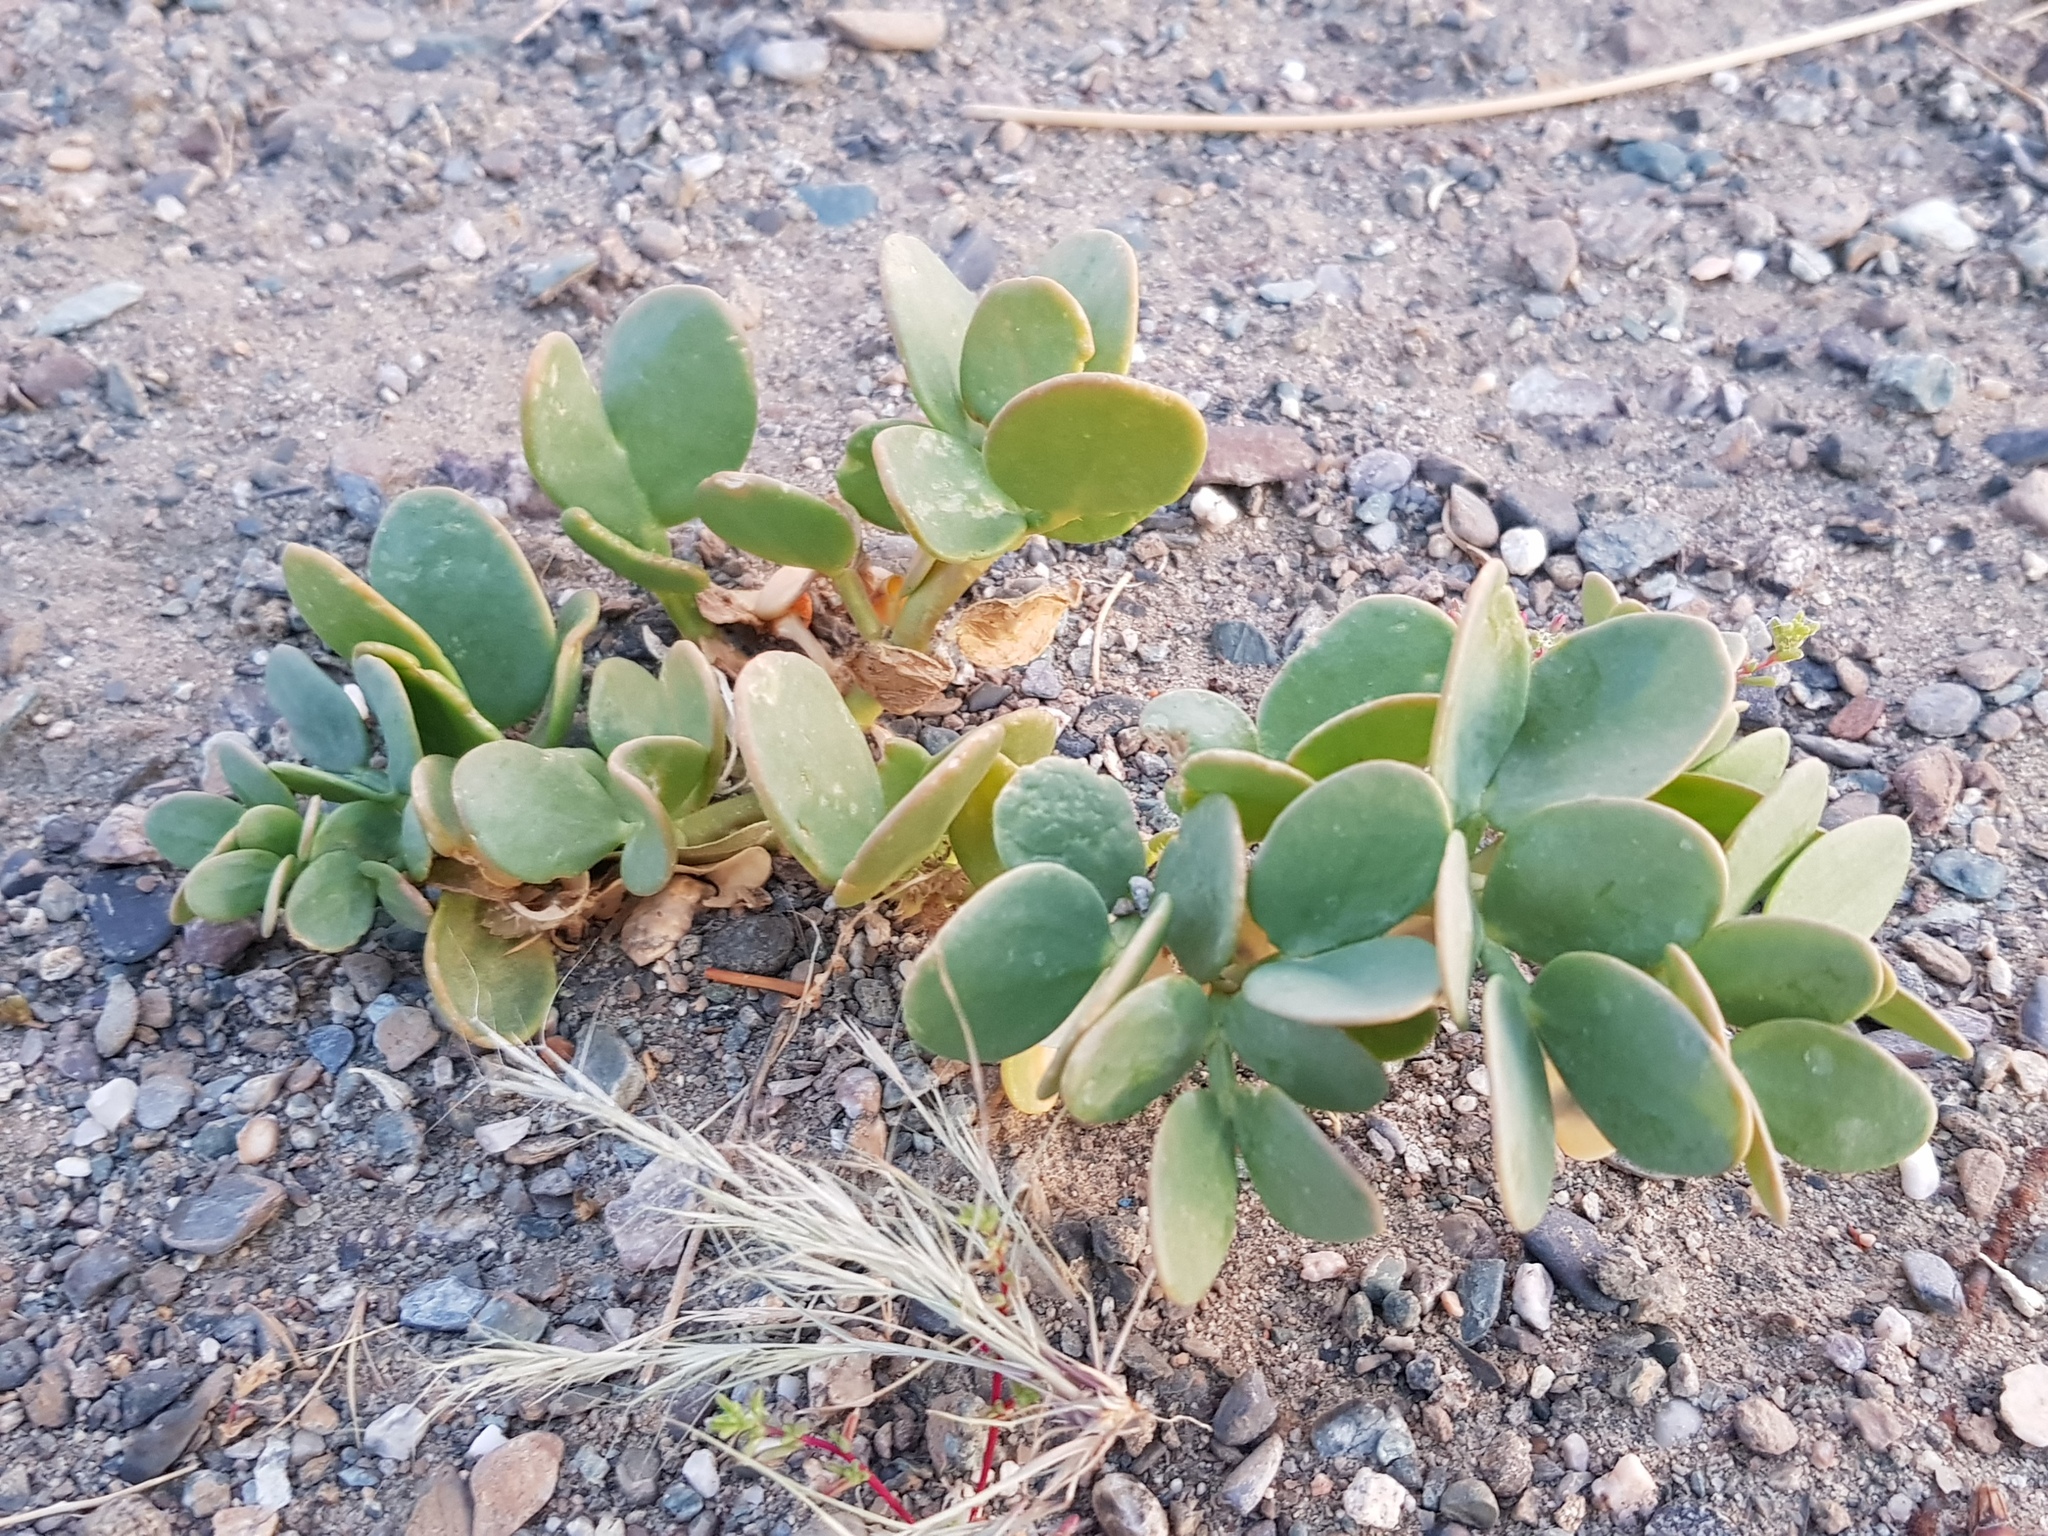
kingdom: Plantae
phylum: Tracheophyta
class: Magnoliopsida
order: Zygophyllales
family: Zygophyllaceae
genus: Zygophyllum
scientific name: Zygophyllum potaninii
